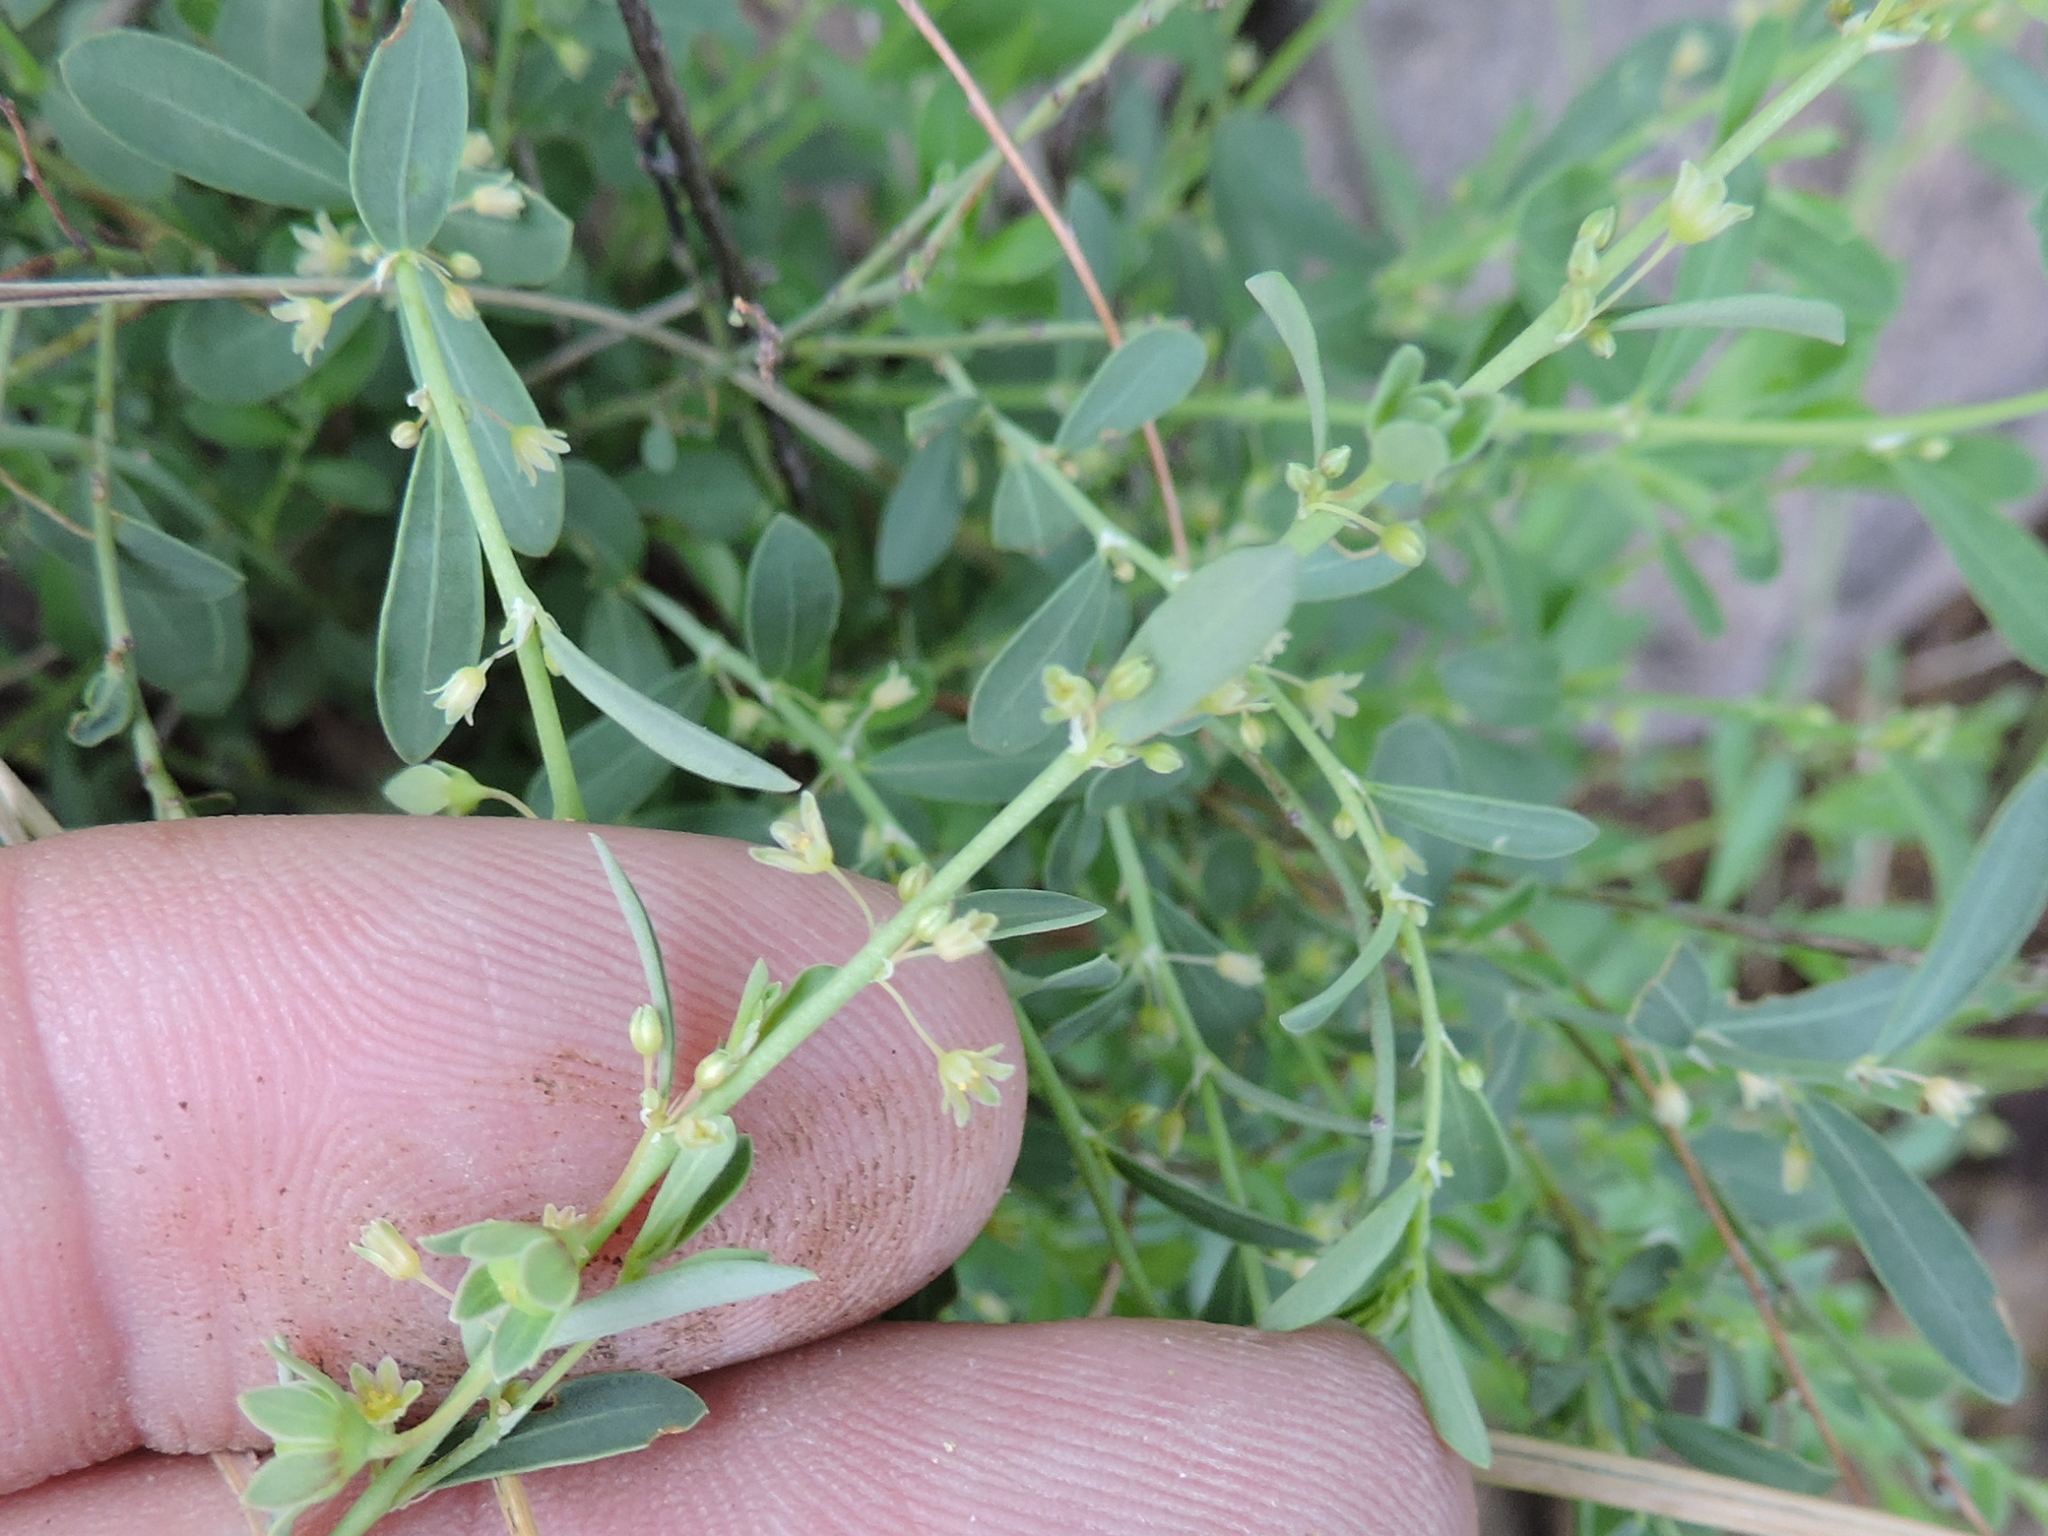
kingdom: Plantae
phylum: Tracheophyta
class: Magnoliopsida
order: Malpighiales
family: Phyllanthaceae
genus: Phyllanthus
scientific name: Phyllanthus polygonoides
